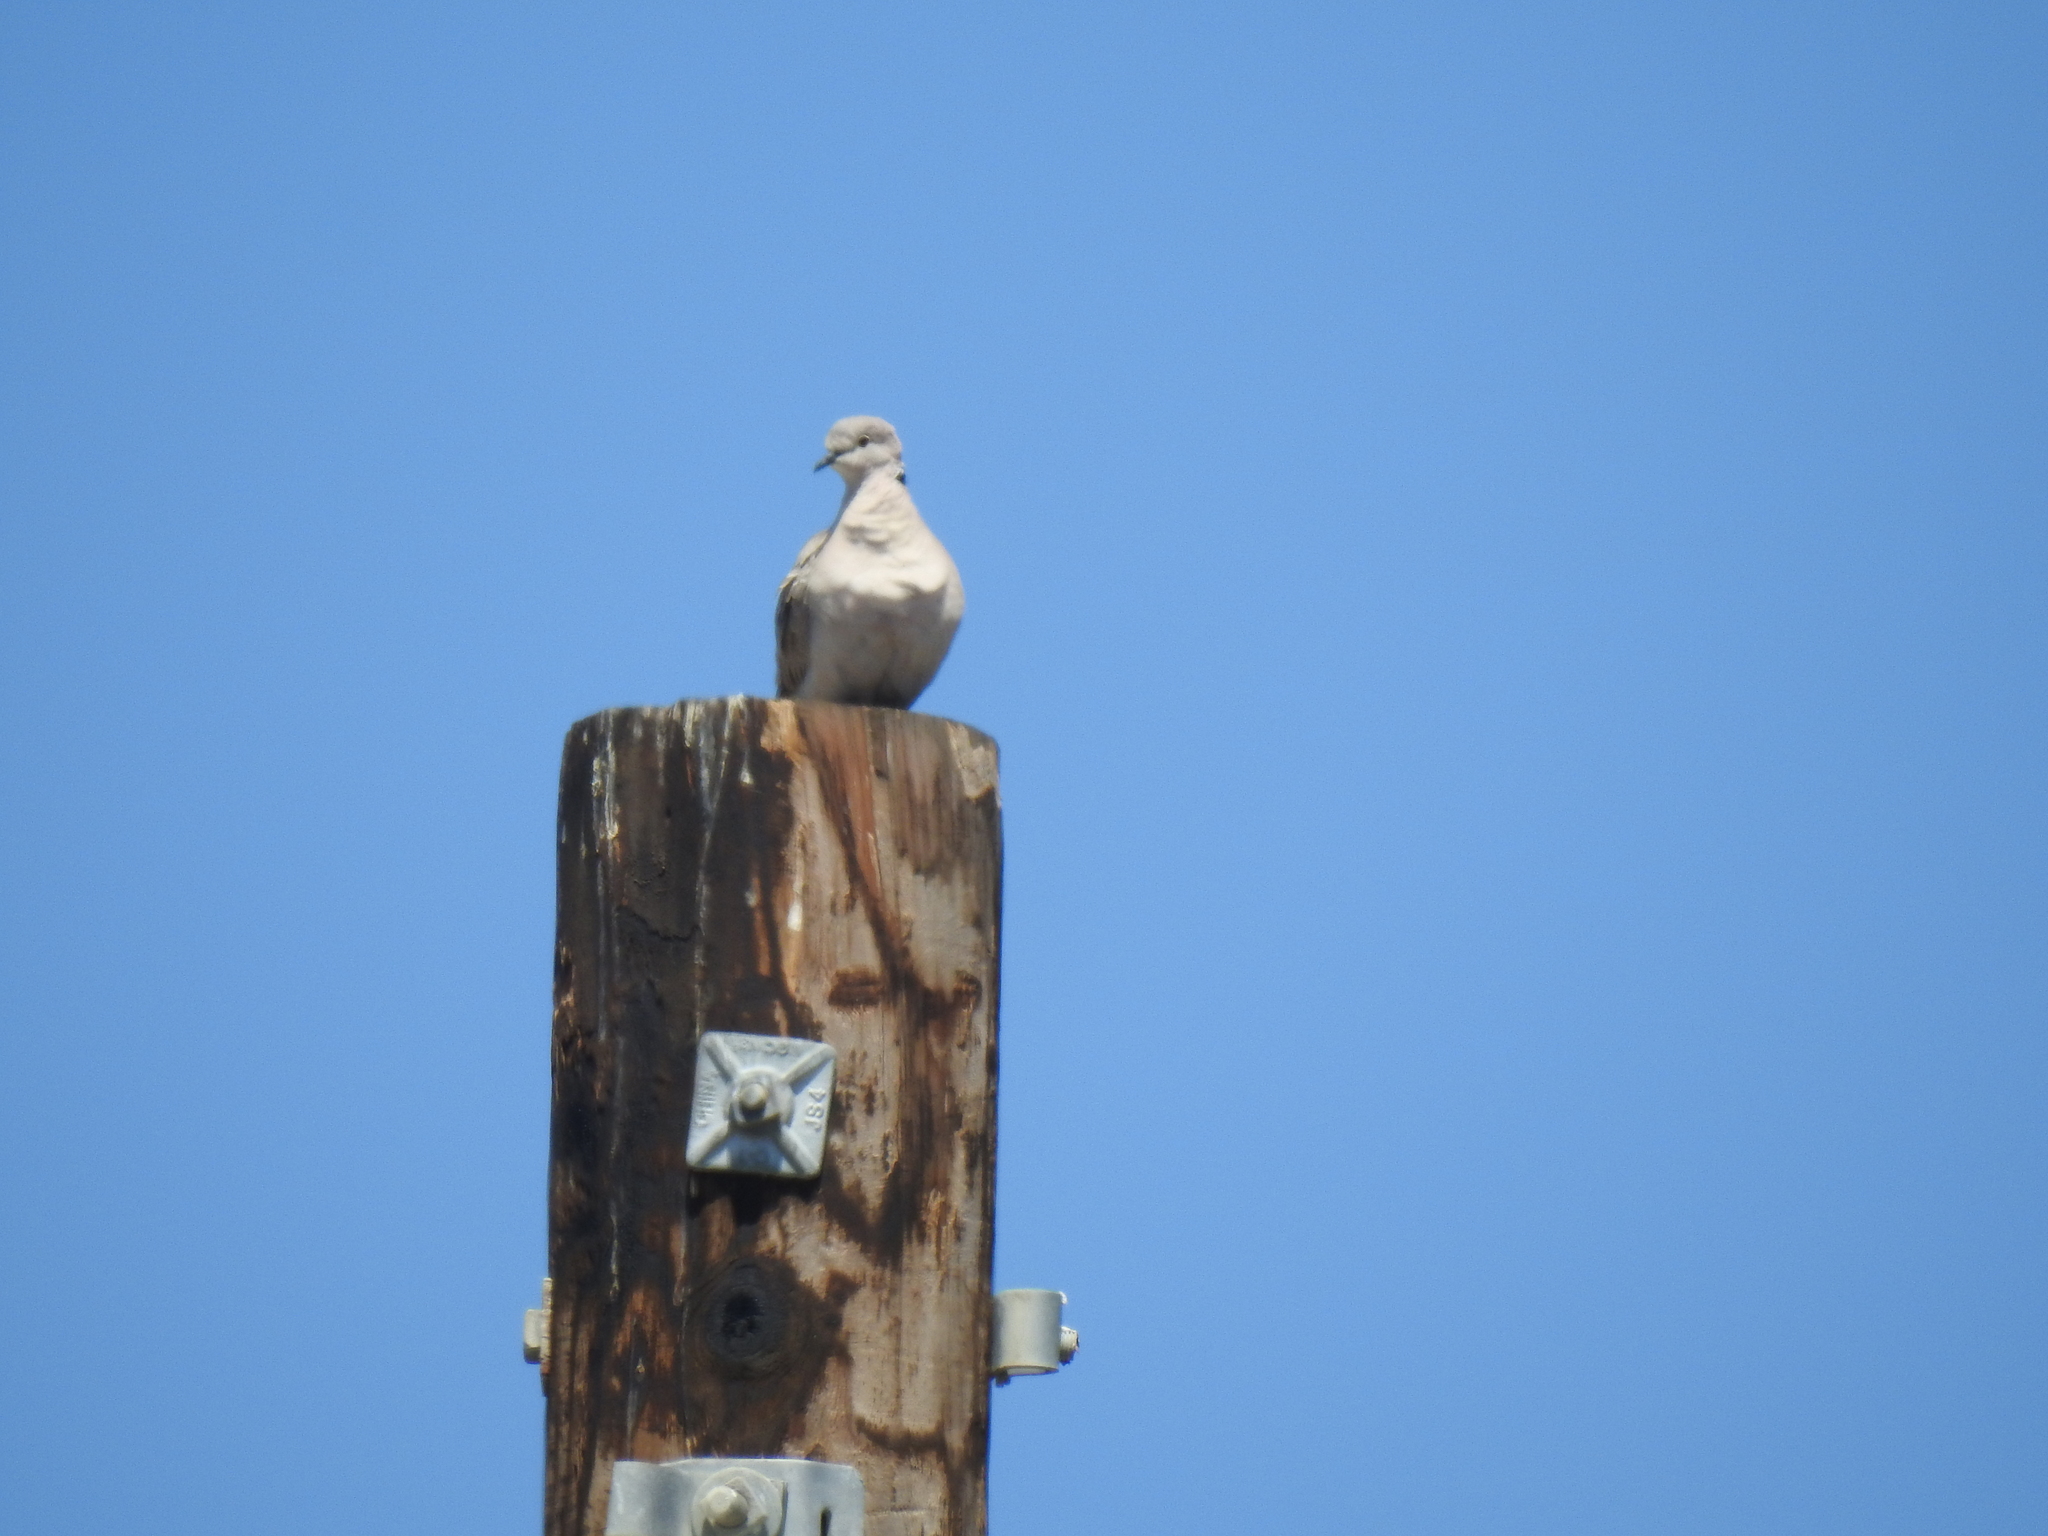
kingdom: Animalia
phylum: Chordata
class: Aves
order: Columbiformes
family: Columbidae
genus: Streptopelia
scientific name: Streptopelia decaocto
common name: Eurasian collared dove
